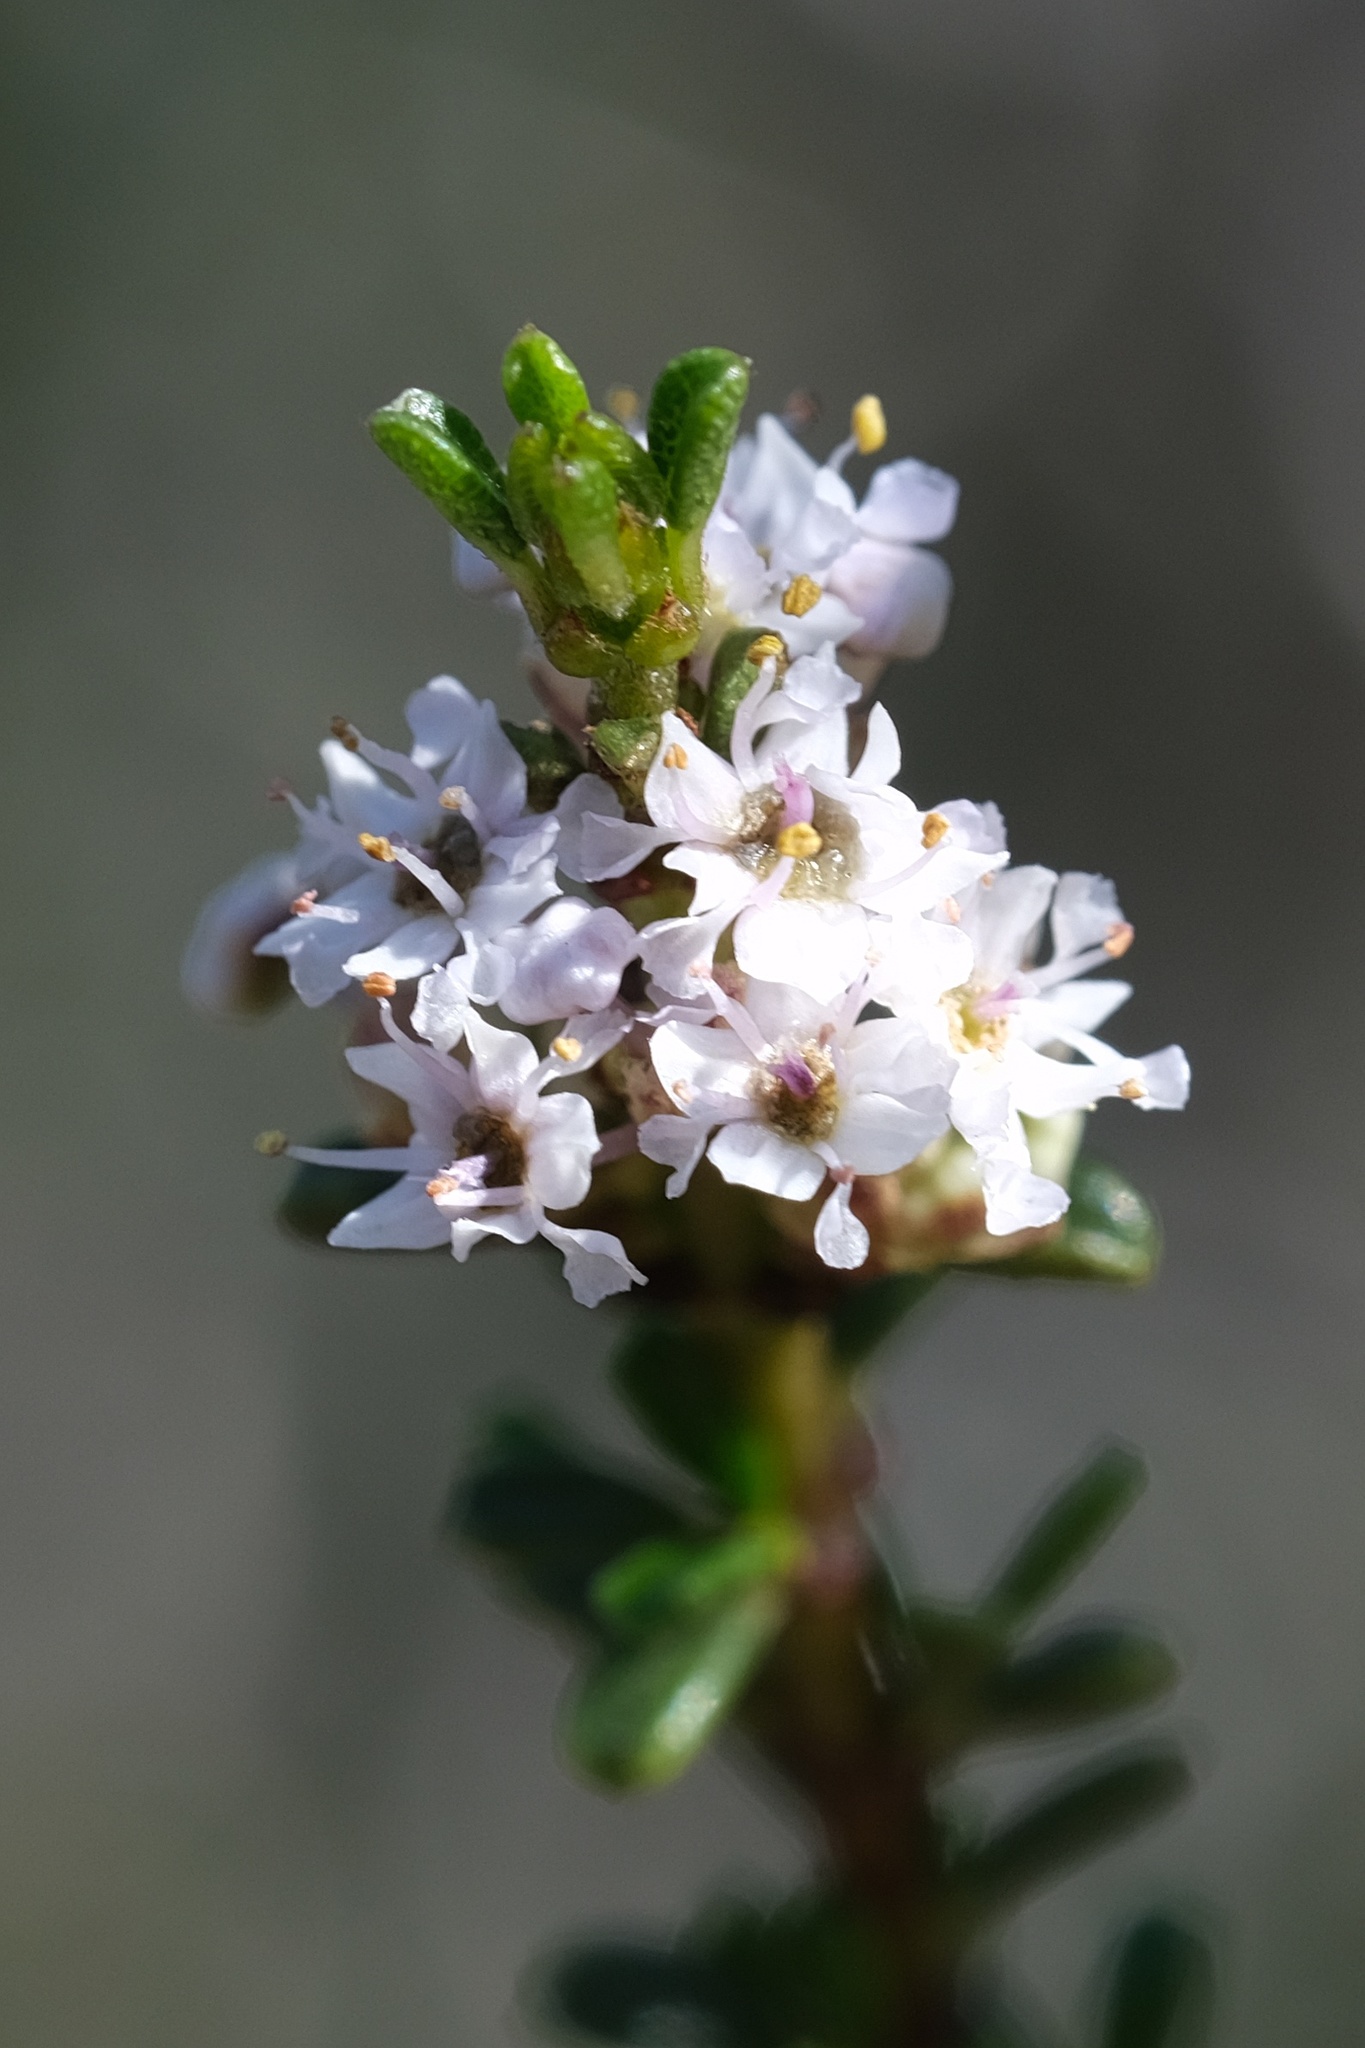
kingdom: Plantae
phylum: Tracheophyta
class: Magnoliopsida
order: Rosales
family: Rhamnaceae
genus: Ceanothus
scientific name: Ceanothus ophiochilus
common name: Vail lake ceanothus
